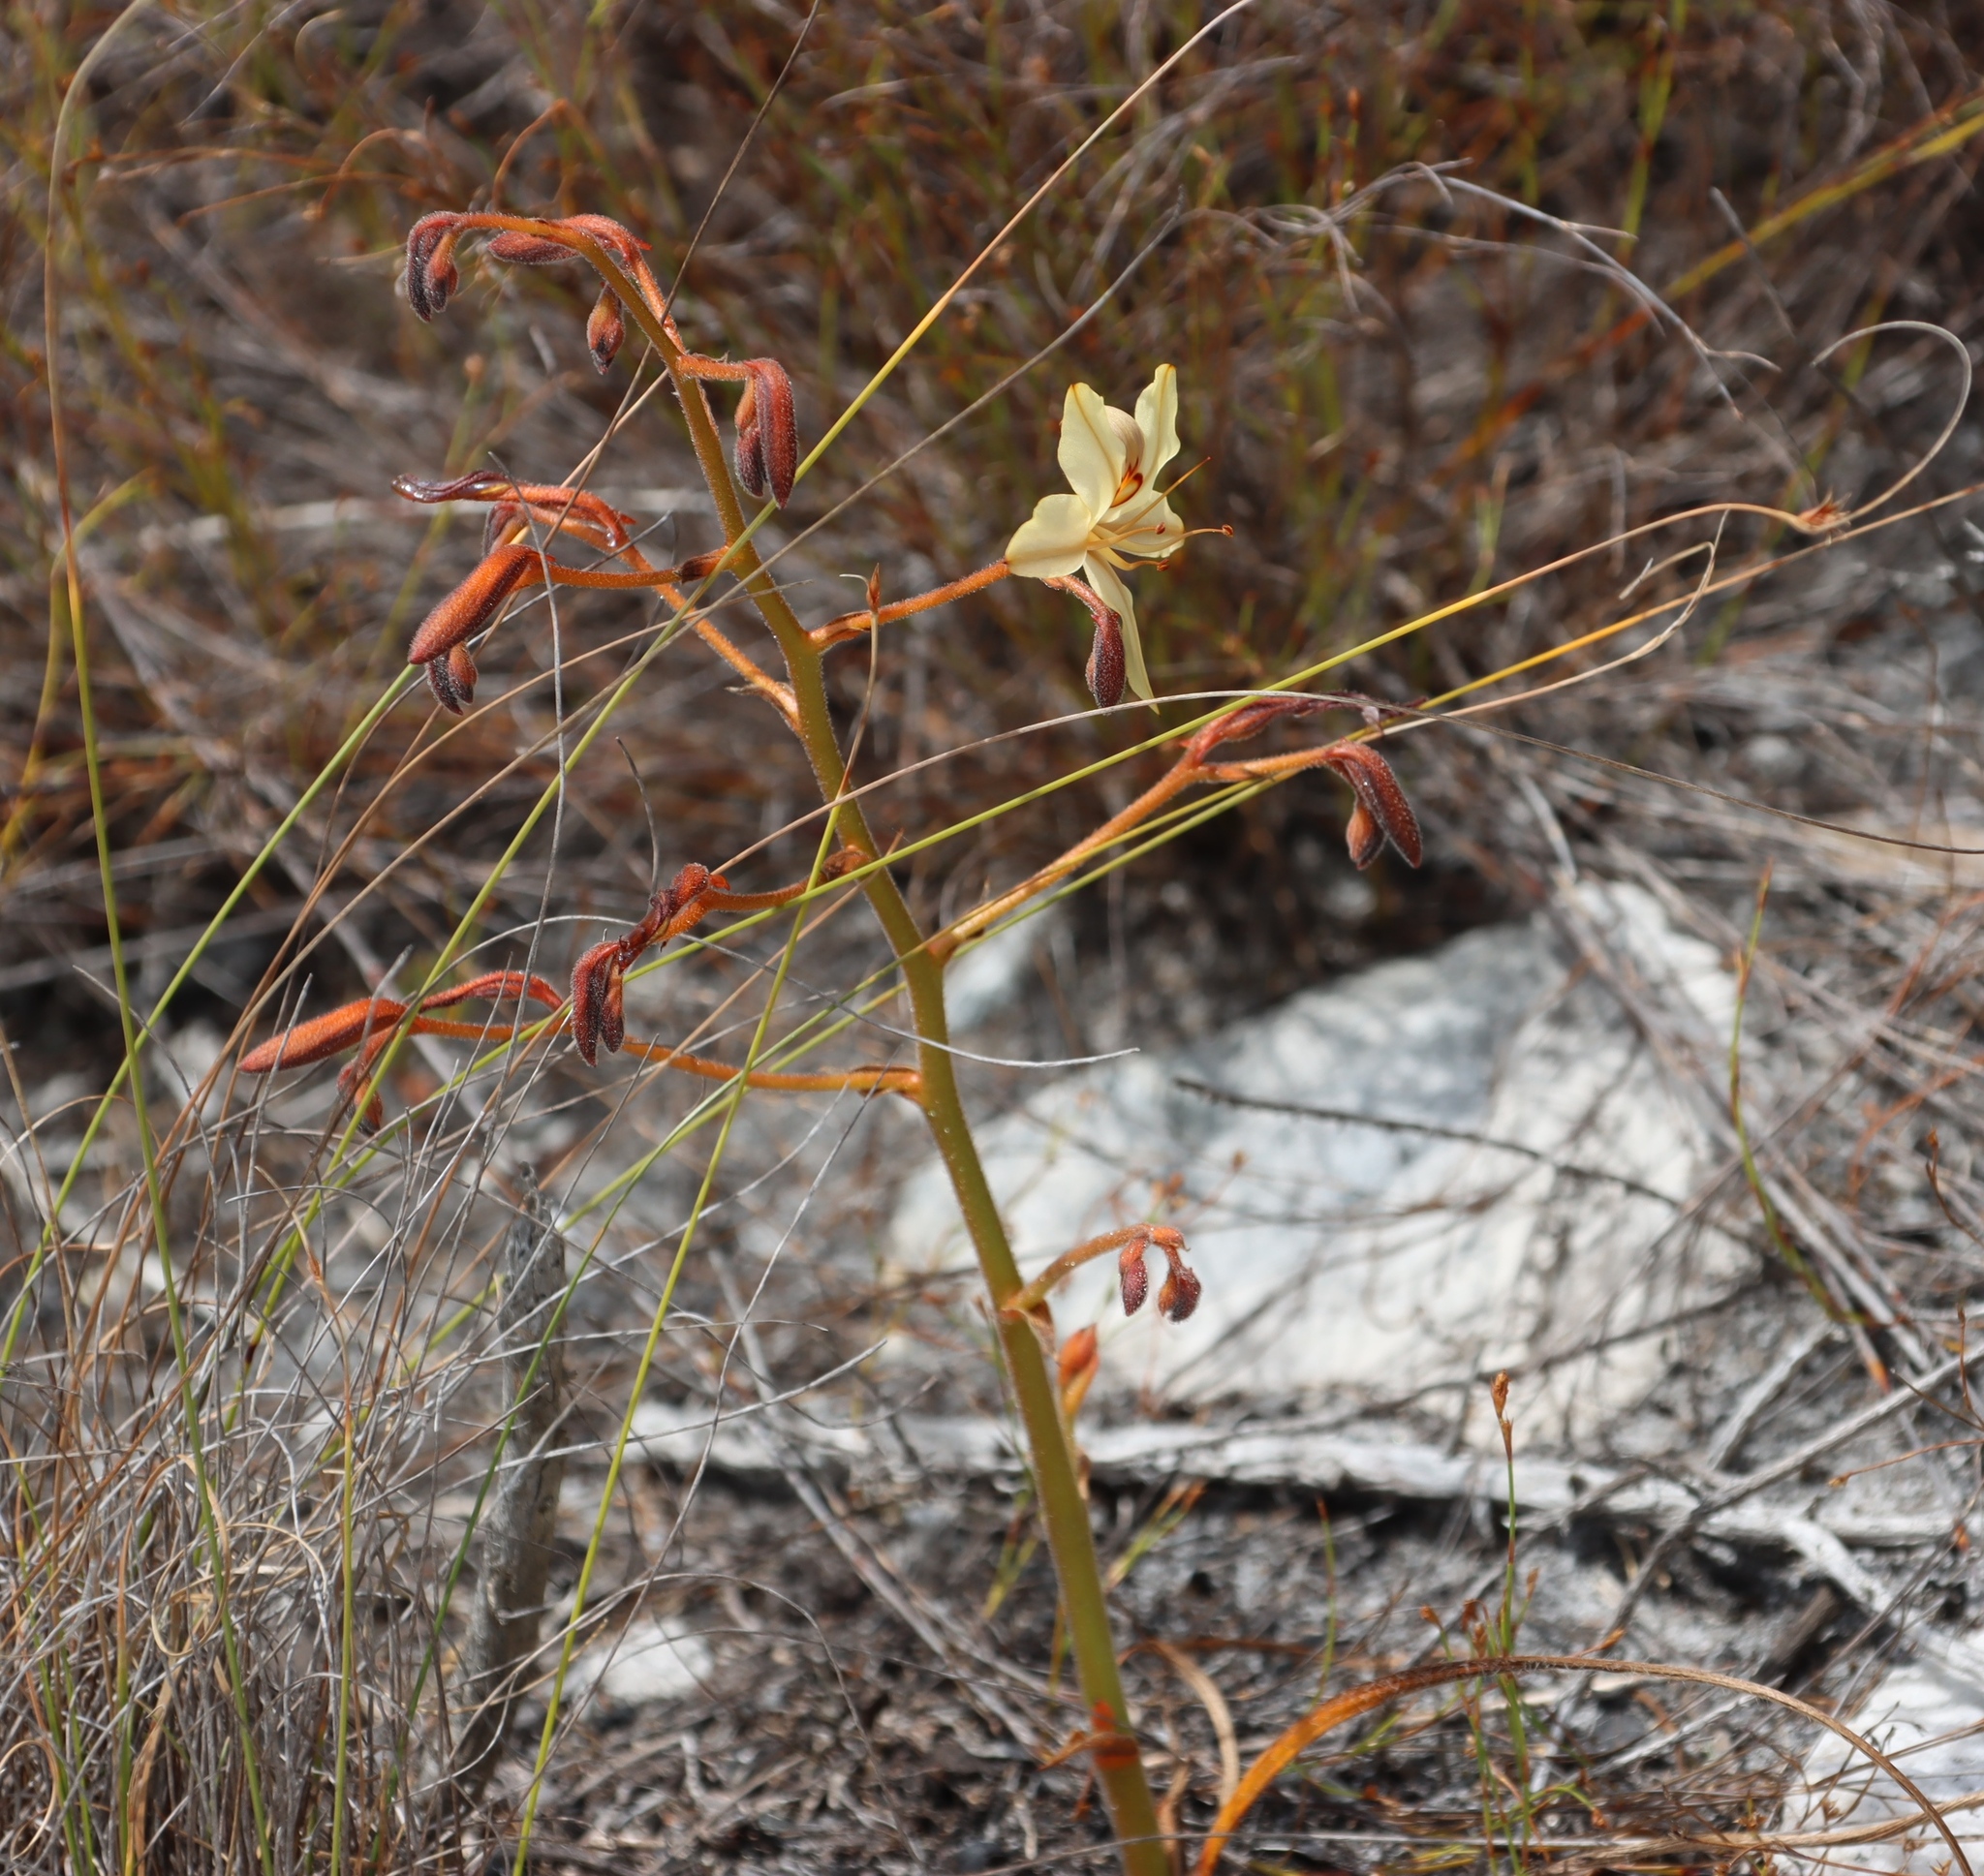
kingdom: Plantae
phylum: Tracheophyta
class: Liliopsida
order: Commelinales
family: Haemodoraceae
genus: Wachendorfia
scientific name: Wachendorfia paniculata
